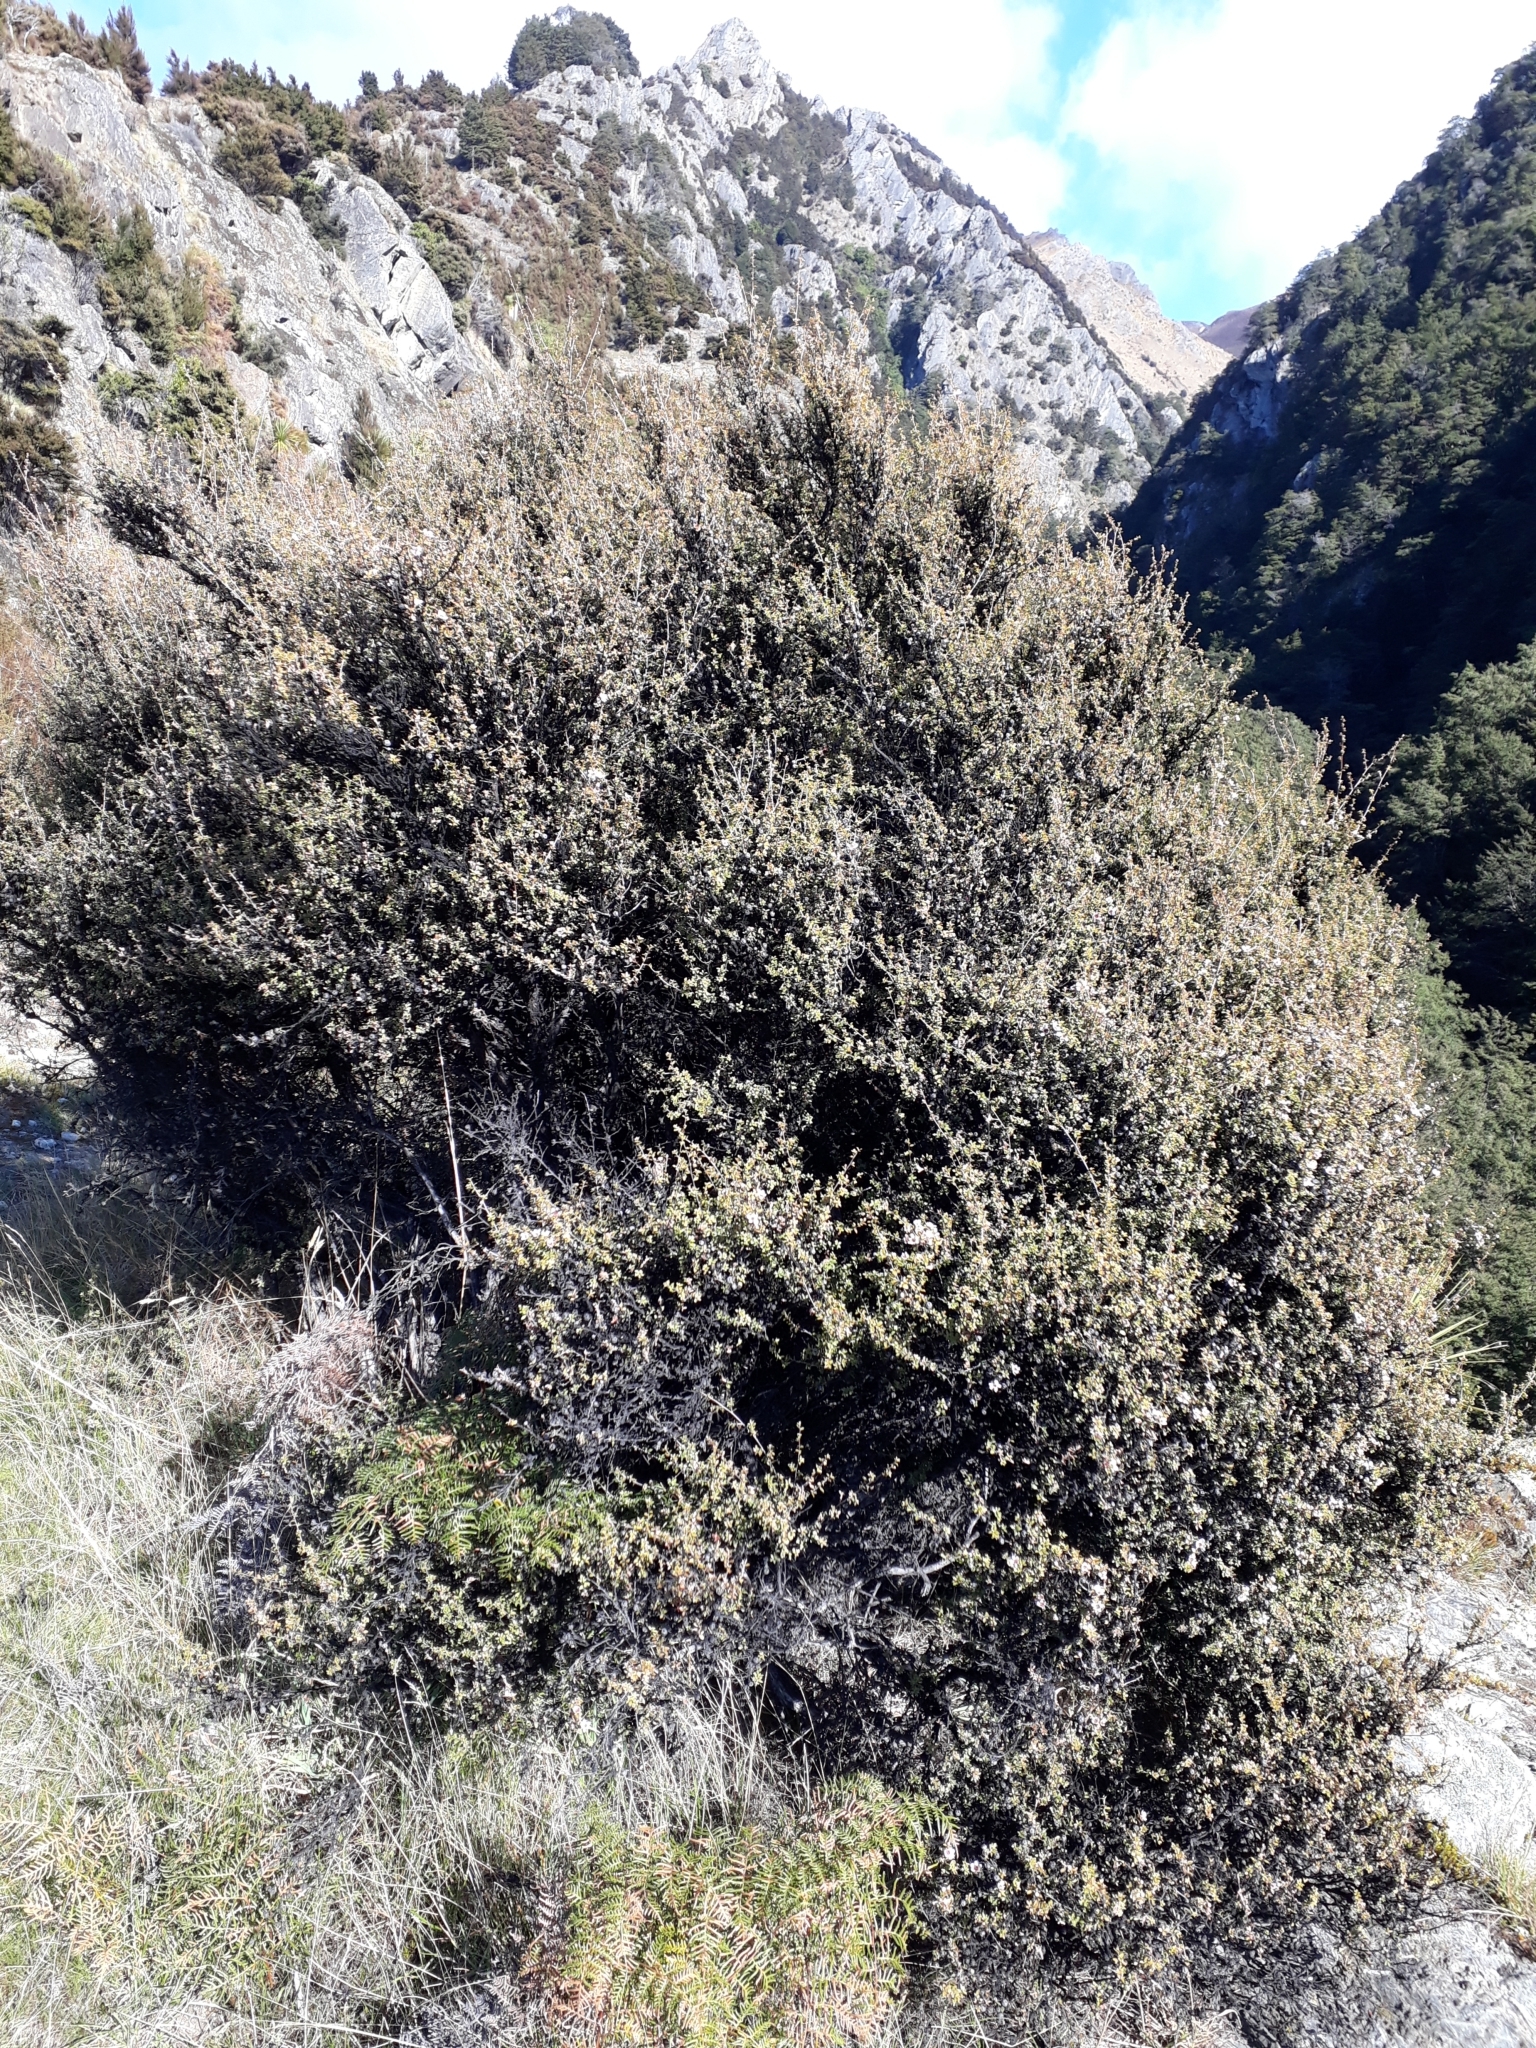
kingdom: Plantae
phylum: Tracheophyta
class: Magnoliopsida
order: Myrtales
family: Myrtaceae
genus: Leptospermum
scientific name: Leptospermum scoparium
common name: Broom tea-tree
